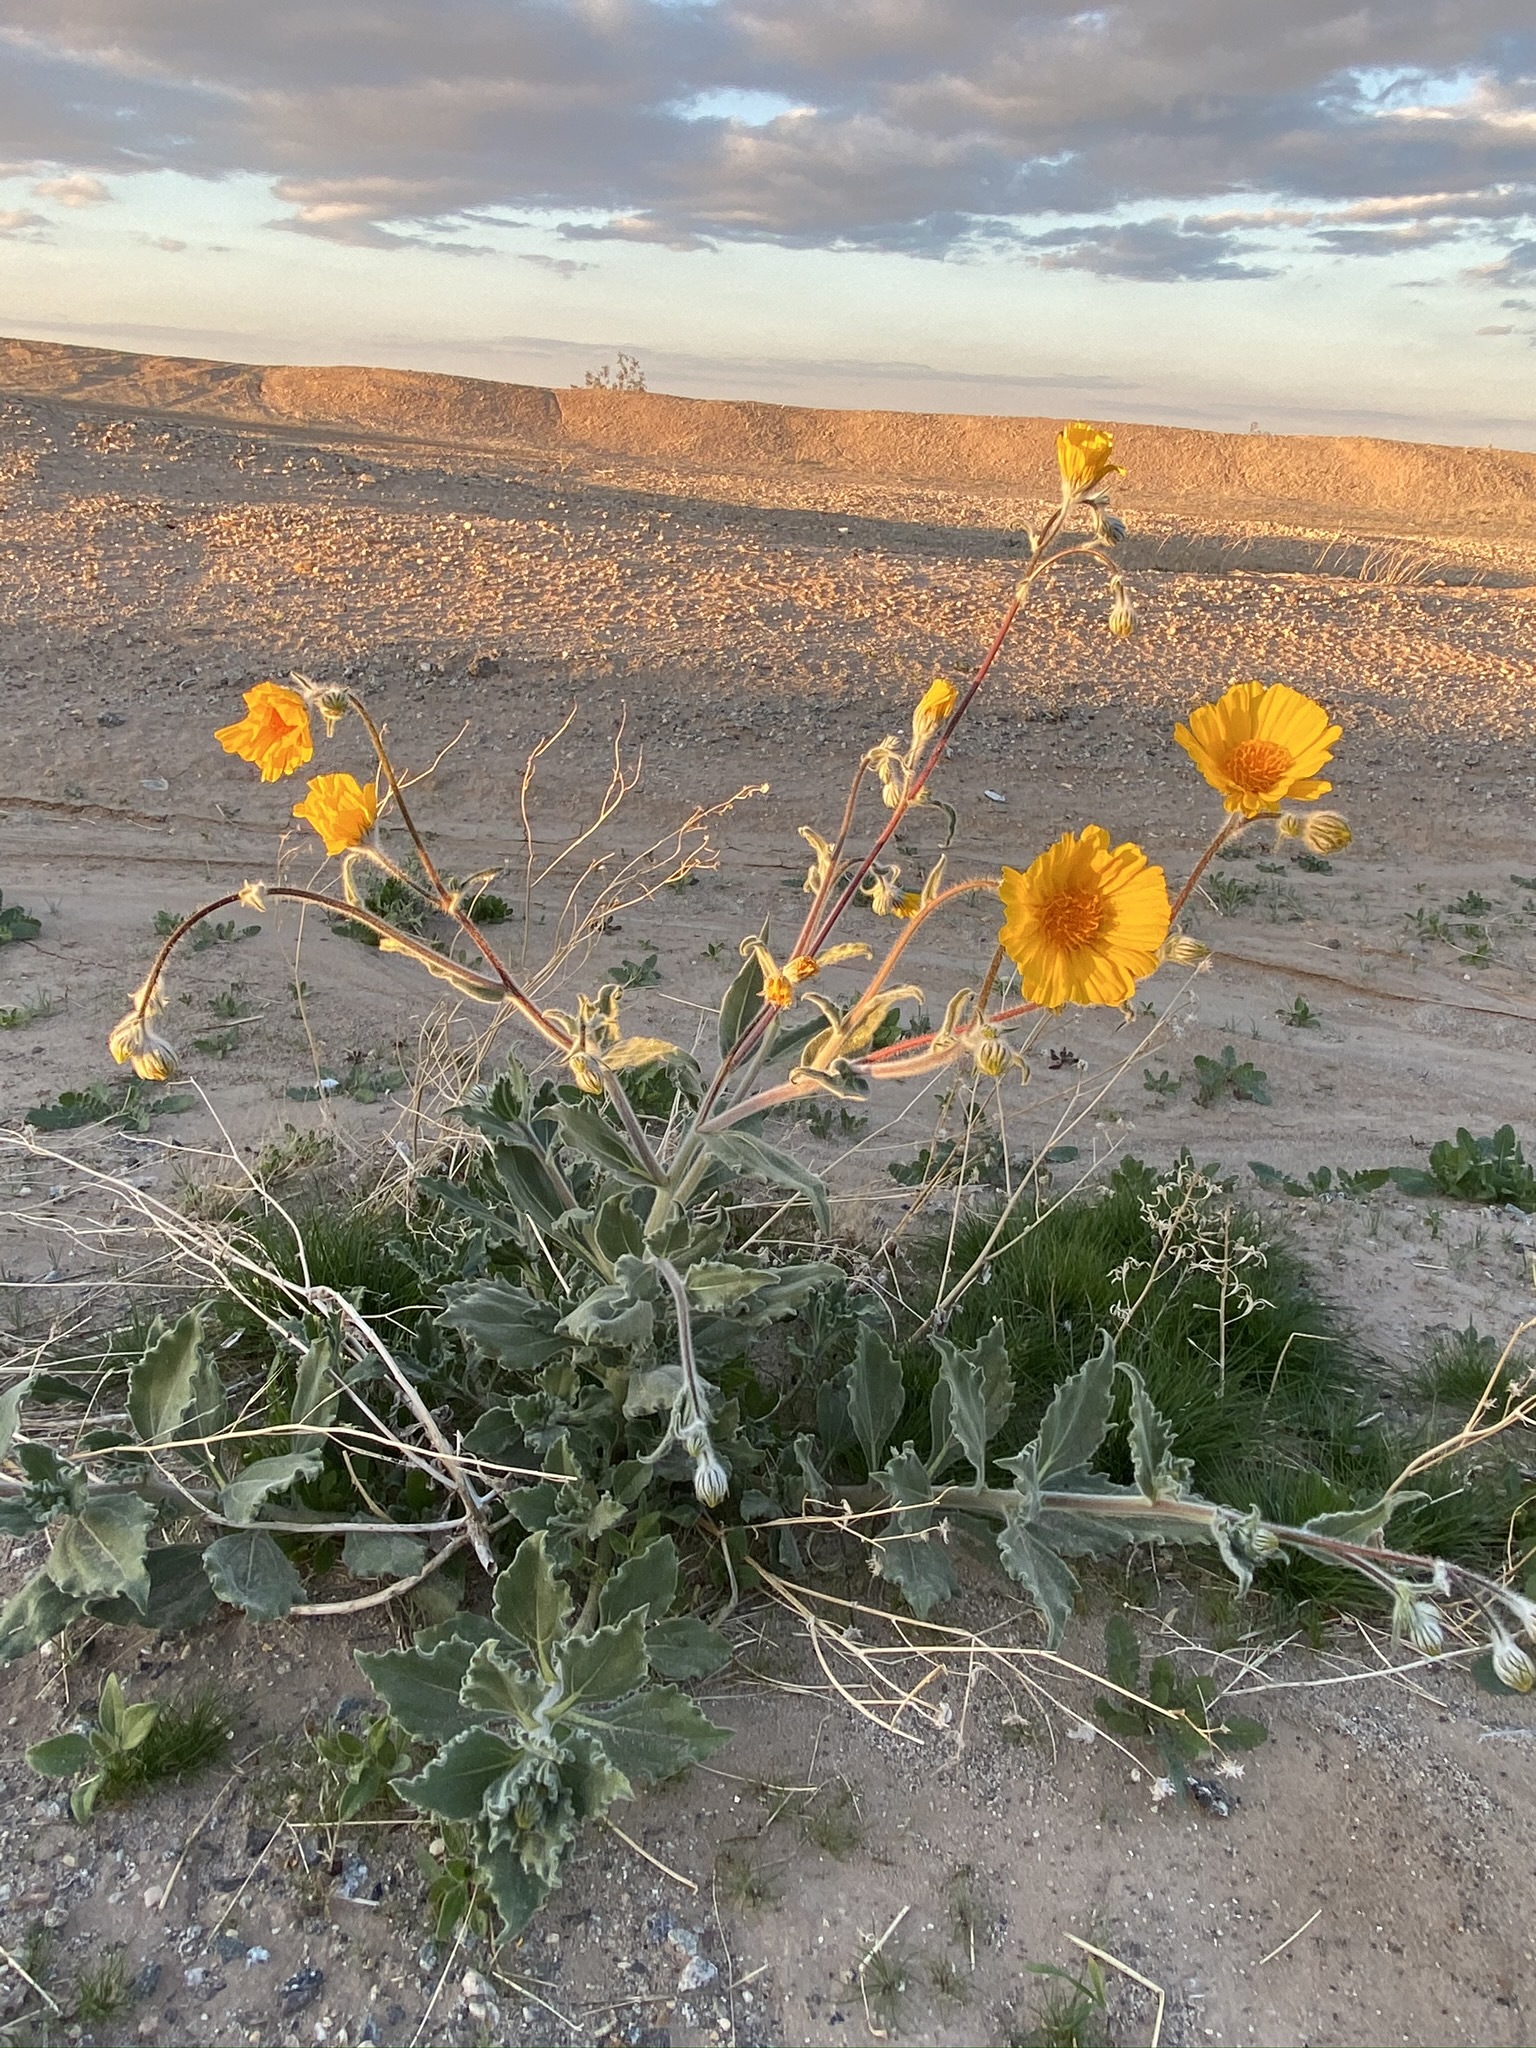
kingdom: Plantae
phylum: Tracheophyta
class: Magnoliopsida
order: Asterales
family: Asteraceae
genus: Geraea
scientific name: Geraea canescens
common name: Desert-gold
